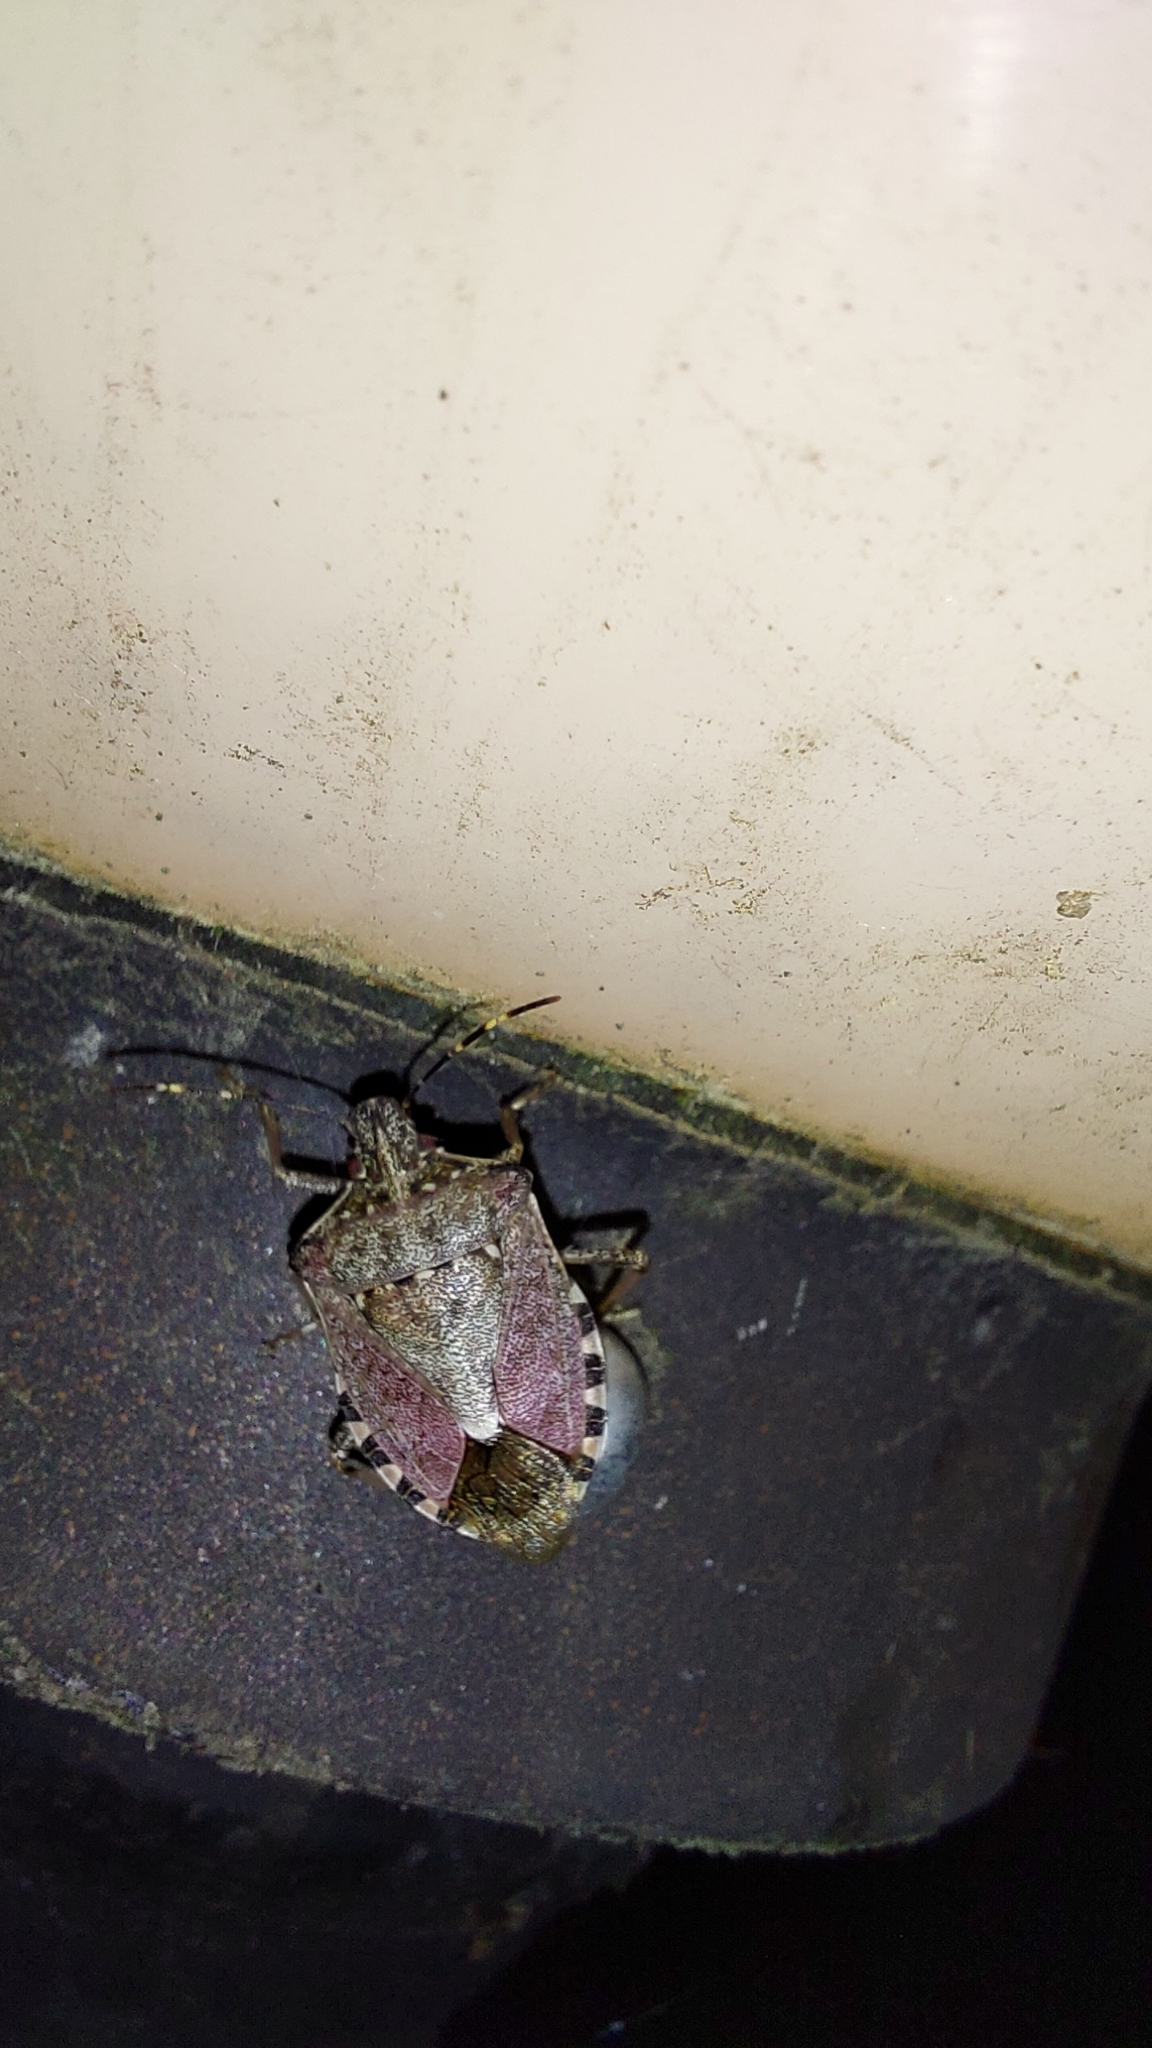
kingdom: Animalia
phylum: Arthropoda
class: Insecta
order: Hemiptera
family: Pentatomidae
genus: Halyomorpha
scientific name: Halyomorpha halys
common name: Brown marmorated stink bug
